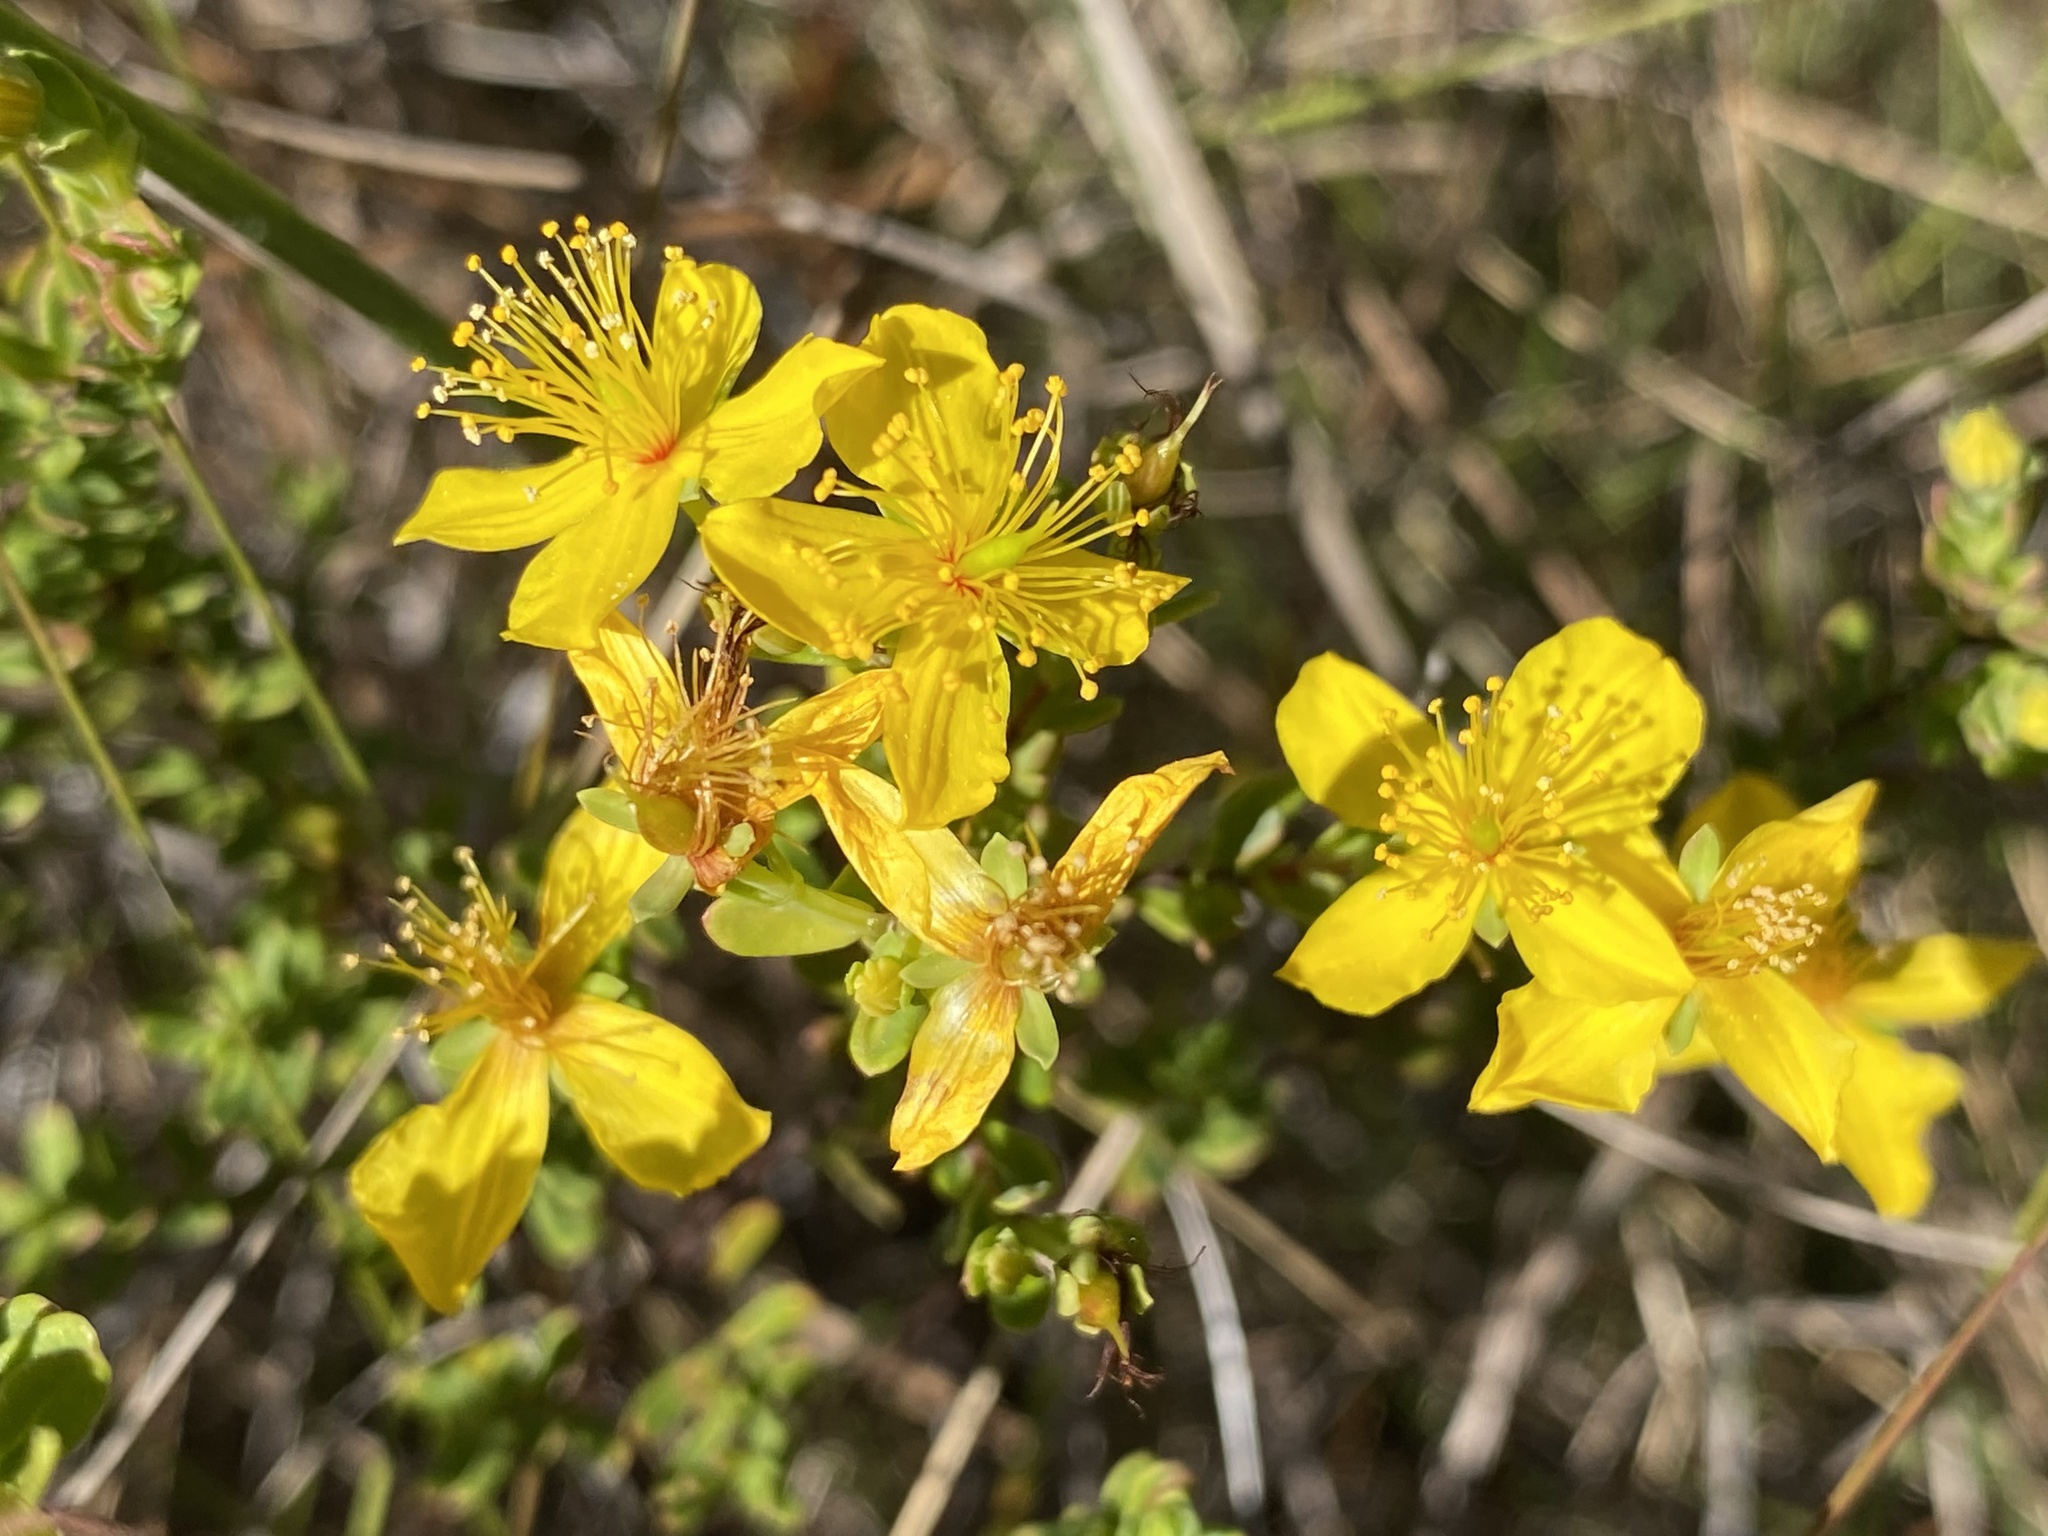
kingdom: Plantae
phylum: Tracheophyta
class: Magnoliopsida
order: Malpighiales
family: Hypericaceae
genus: Hypericum
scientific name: Hypericum microsepalum
